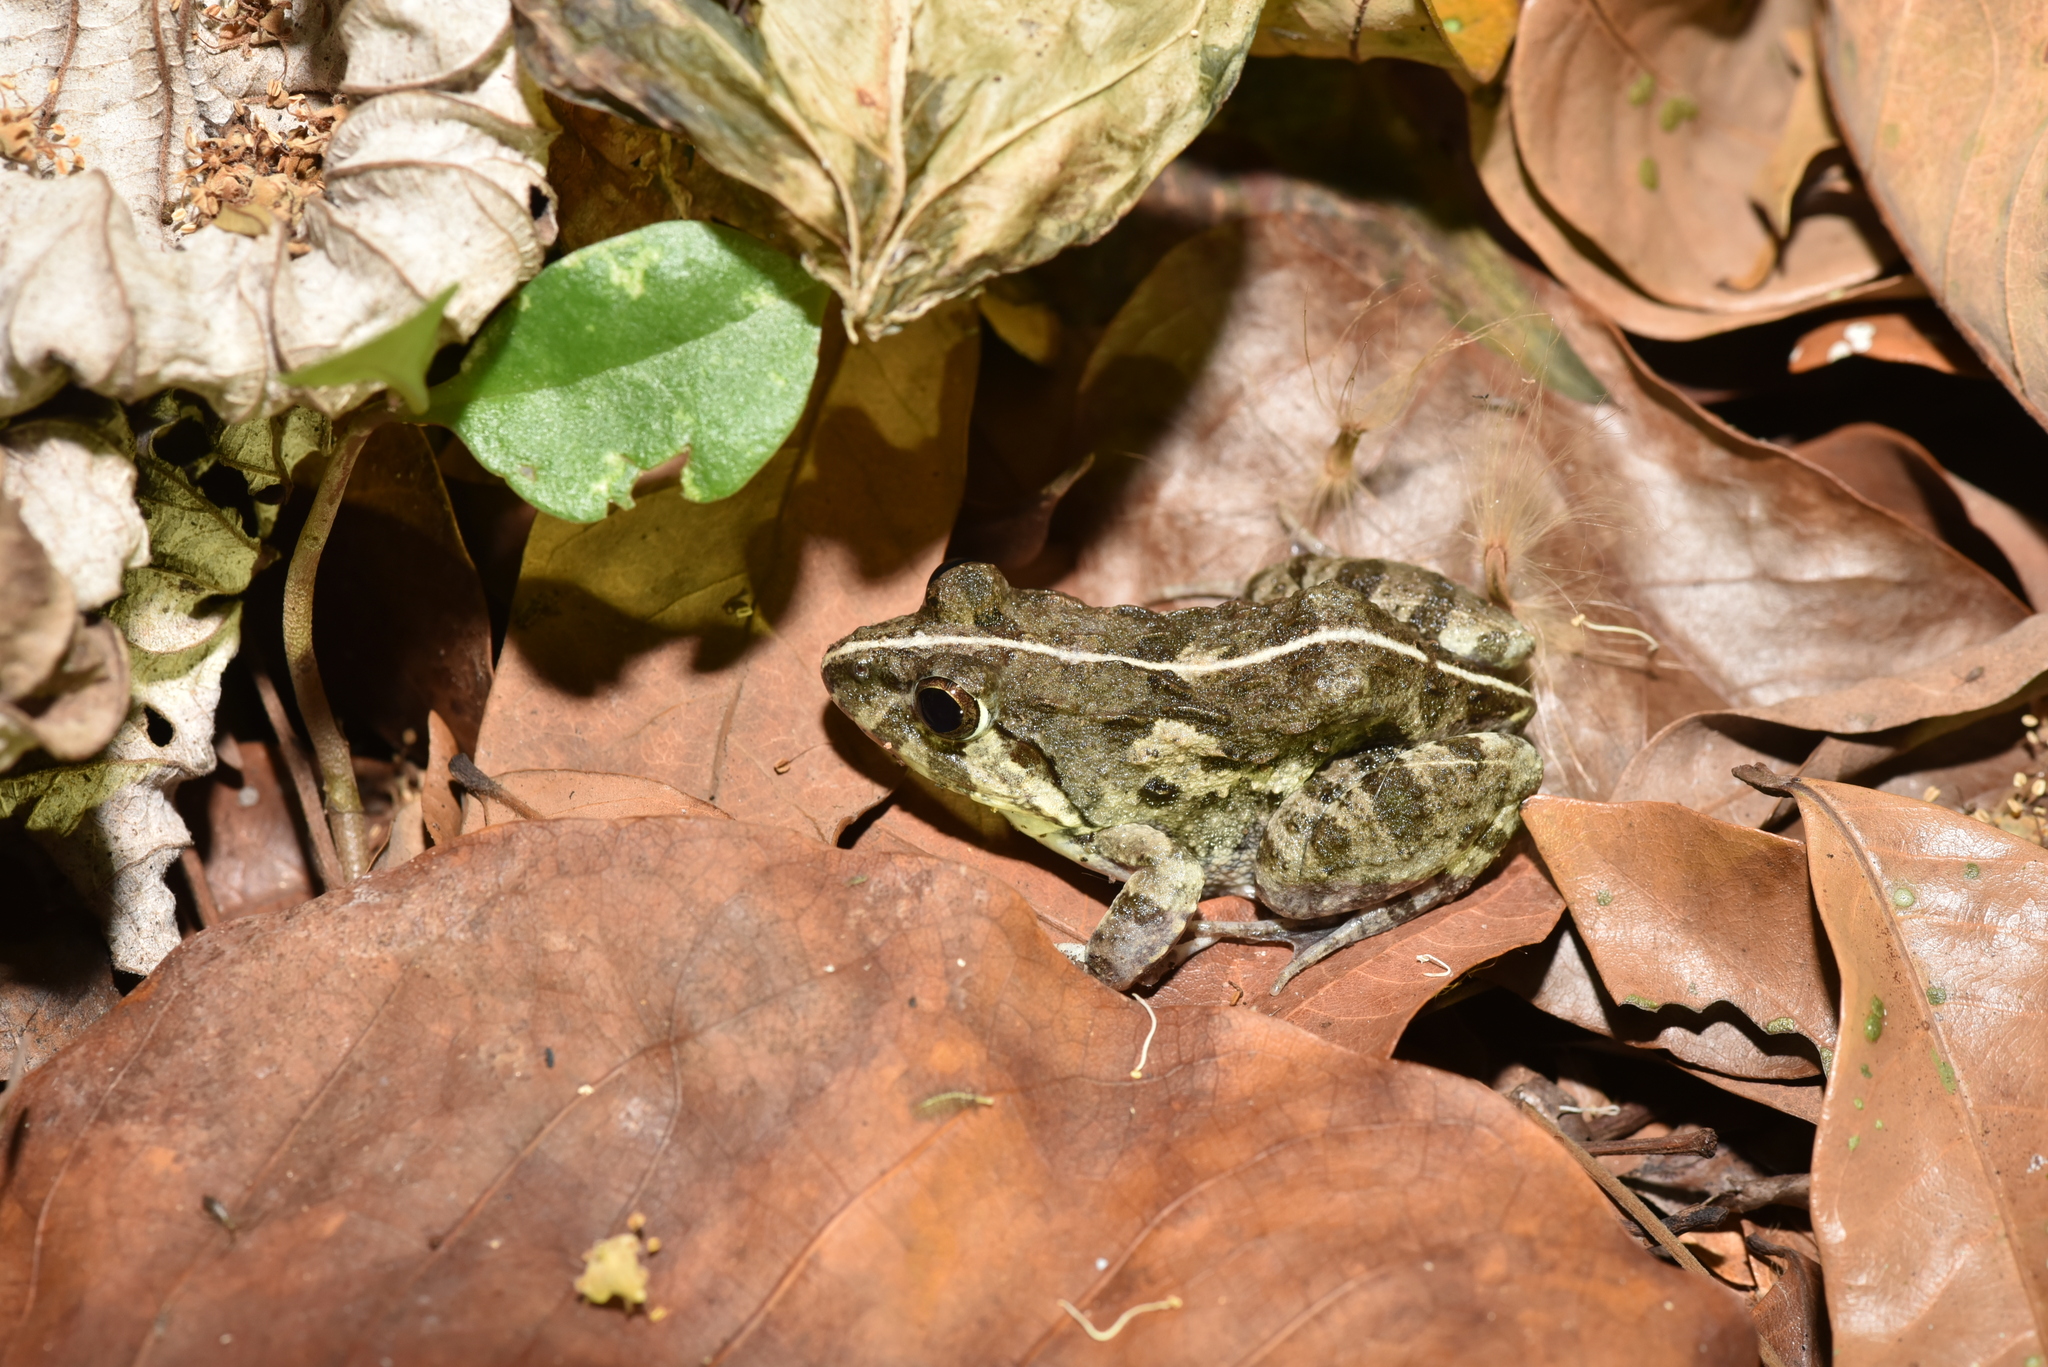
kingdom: Animalia
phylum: Chordata
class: Amphibia
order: Anura
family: Dicroglossidae
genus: Fejervarya
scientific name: Fejervarya limnocharis
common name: Asian grass frog/common pond frog/field frog/grass frog/indian rice frog
